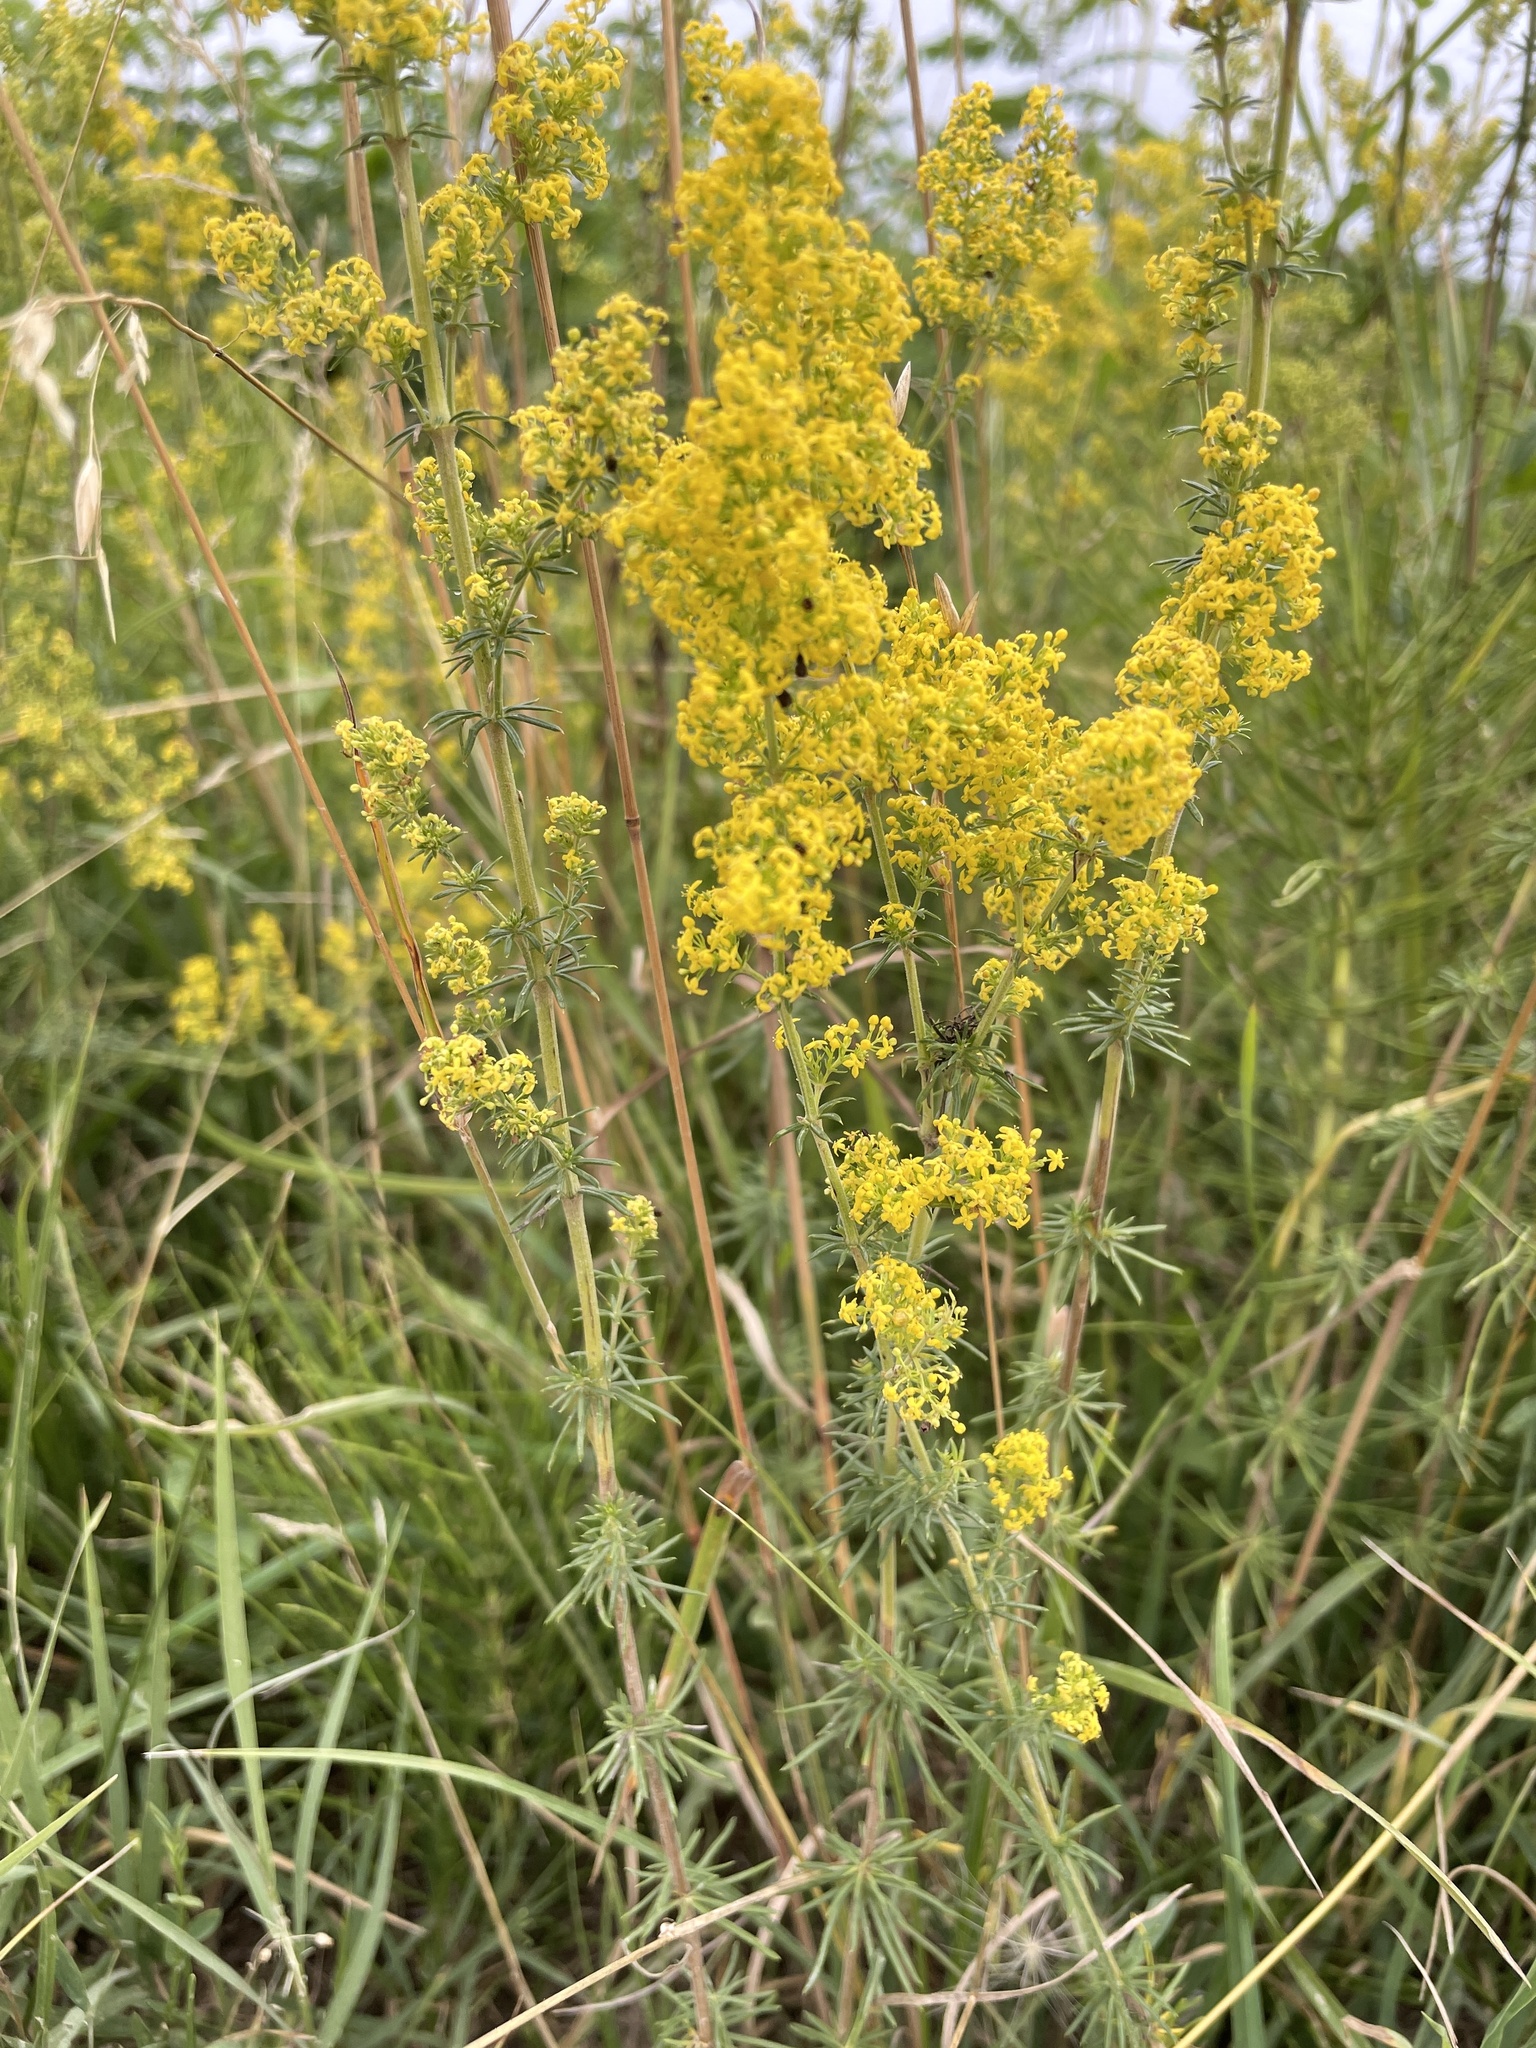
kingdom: Plantae
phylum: Tracheophyta
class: Magnoliopsida
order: Gentianales
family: Rubiaceae
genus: Galium
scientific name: Galium verum
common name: Lady's bedstraw
